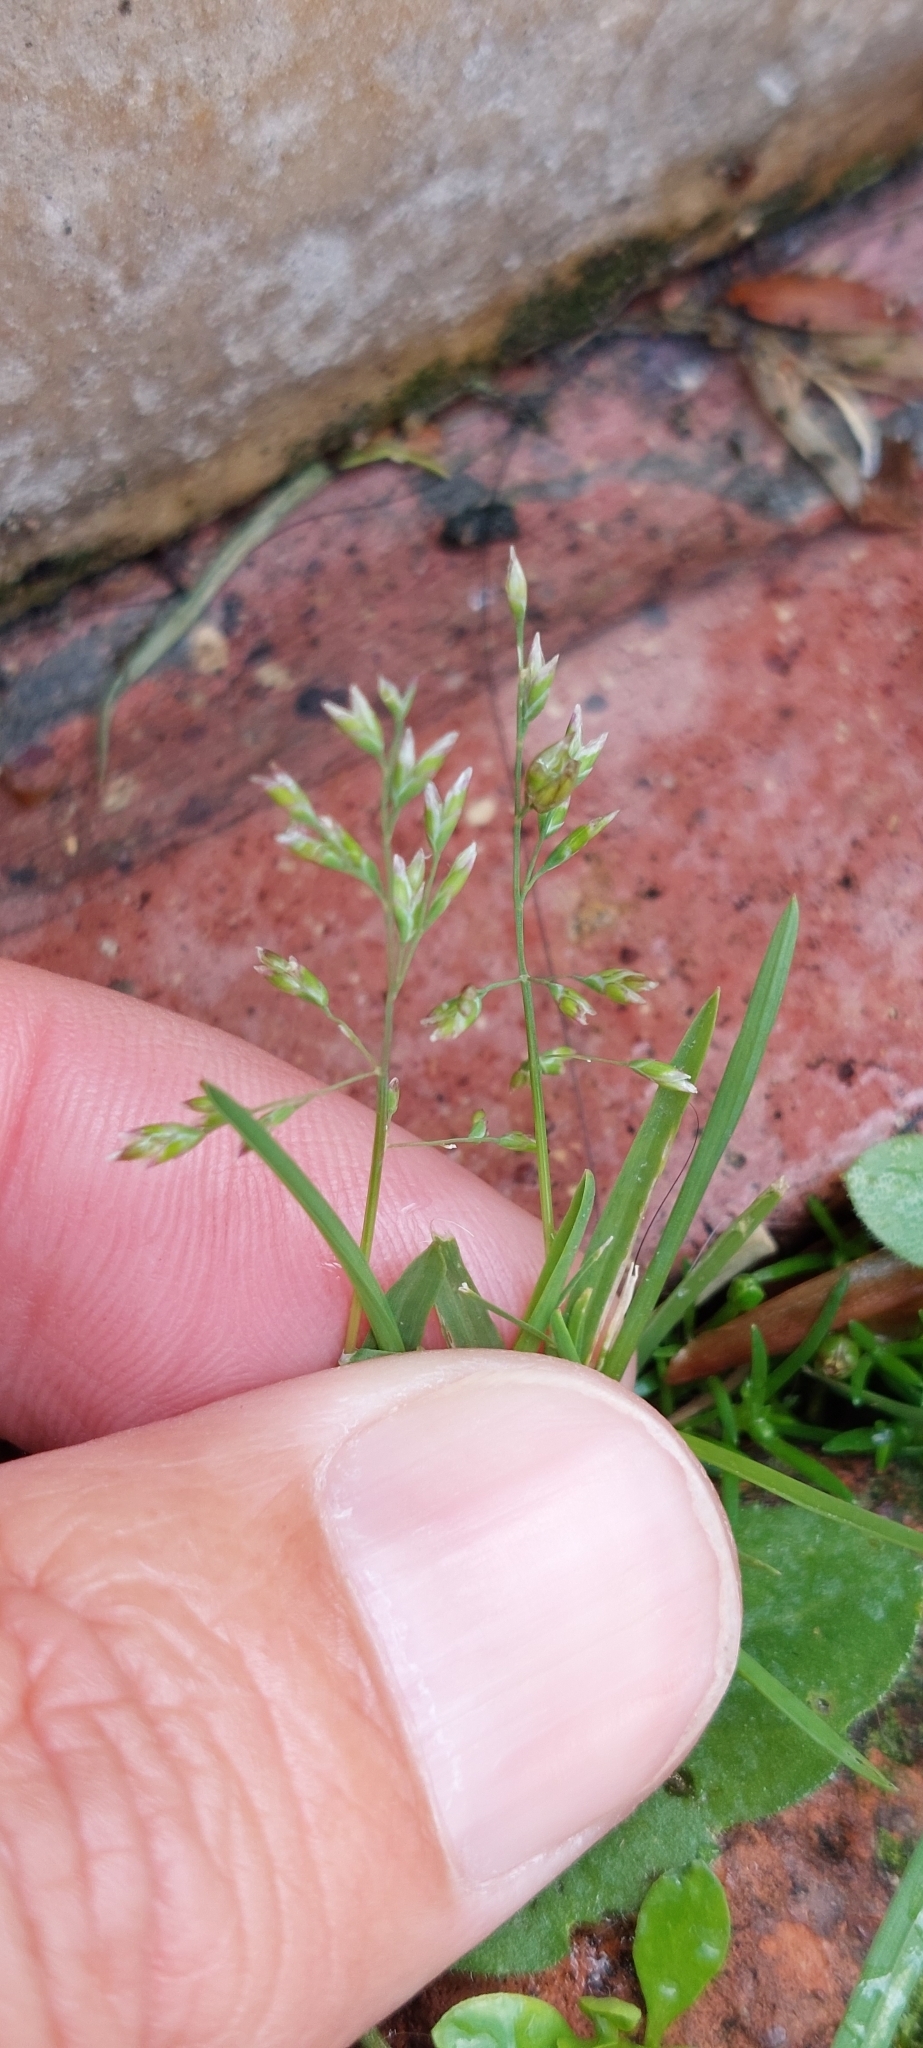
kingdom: Plantae
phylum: Tracheophyta
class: Liliopsida
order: Poales
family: Poaceae
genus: Poa
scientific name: Poa annua
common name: Annual bluegrass
